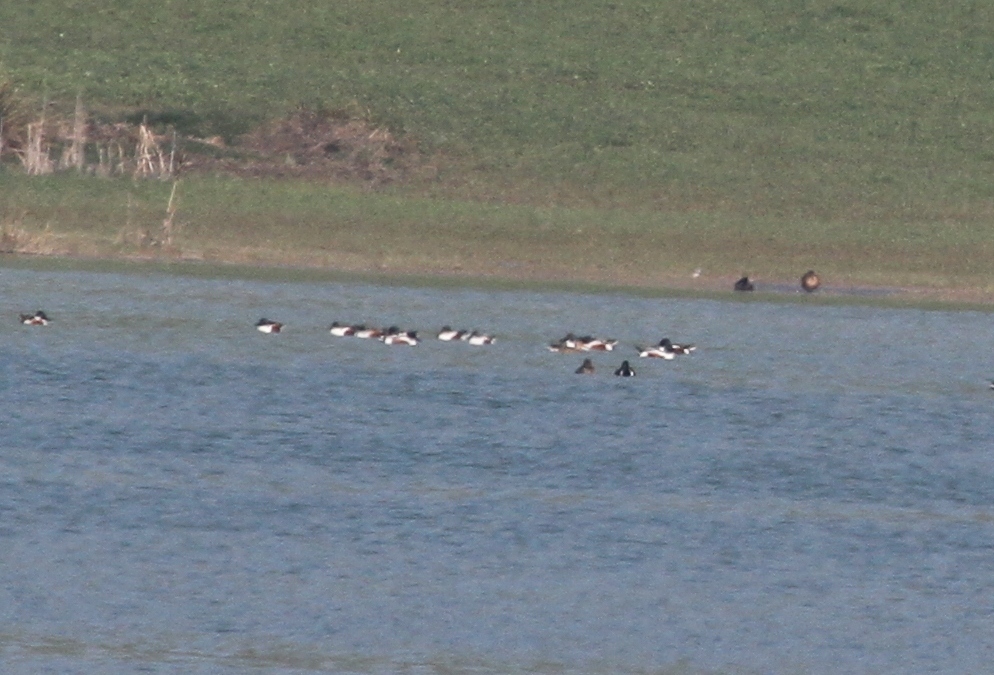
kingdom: Animalia
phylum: Chordata
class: Aves
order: Anseriformes
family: Anatidae
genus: Spatula
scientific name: Spatula clypeata
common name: Northern shoveler
